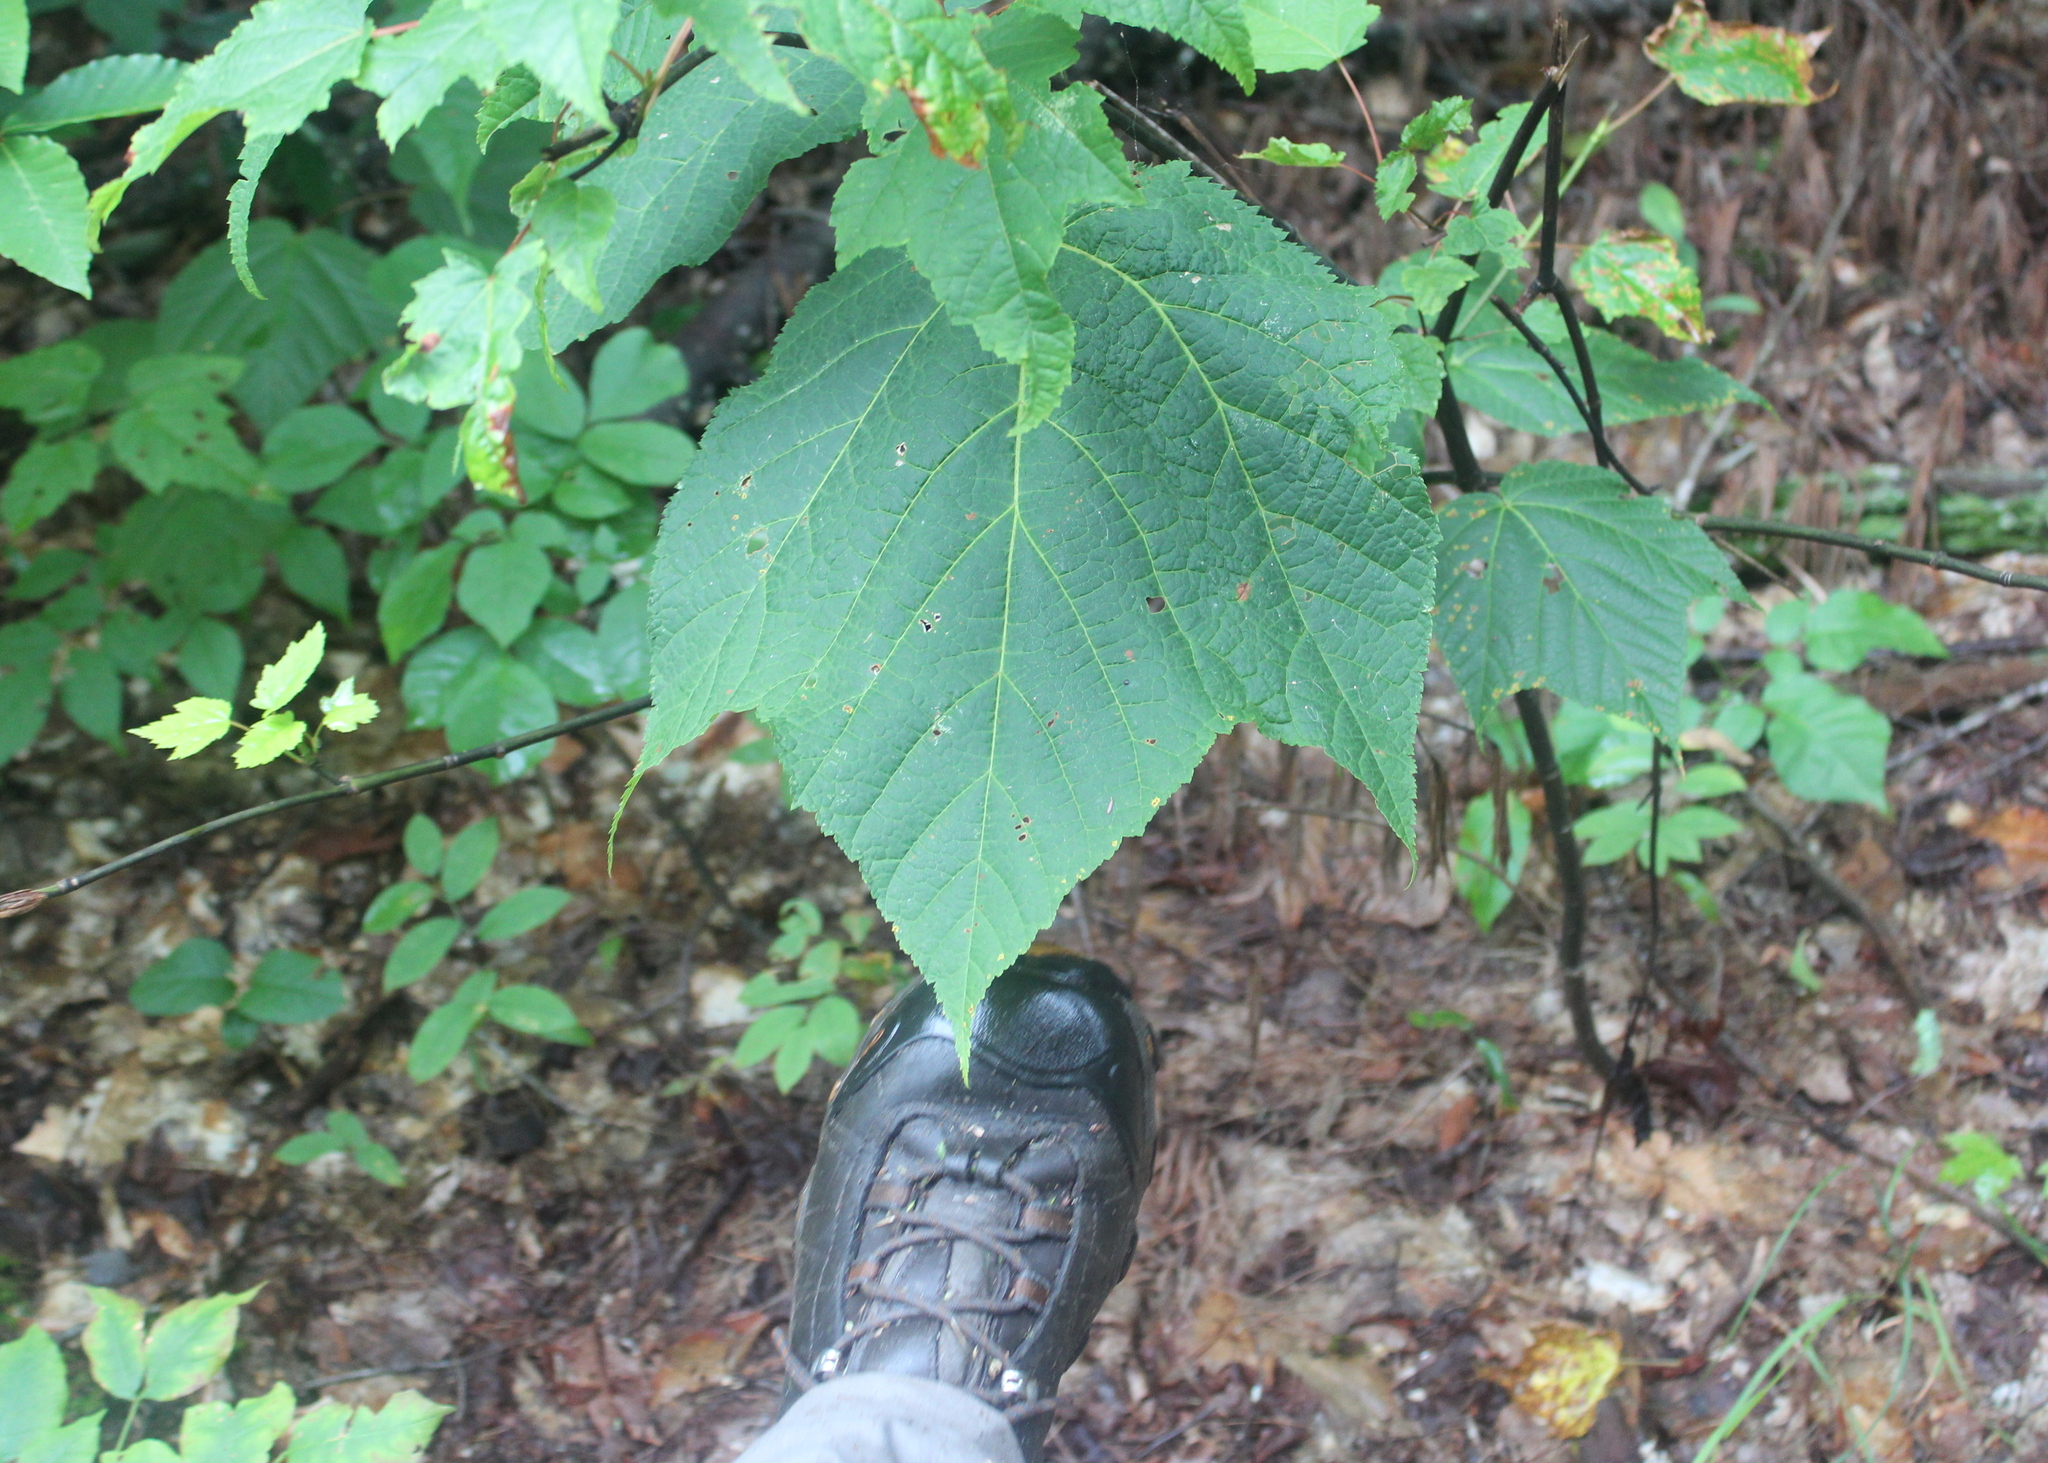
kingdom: Plantae
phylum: Tracheophyta
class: Magnoliopsida
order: Sapindales
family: Sapindaceae
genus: Acer
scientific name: Acer pensylvanicum
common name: Moosewood
